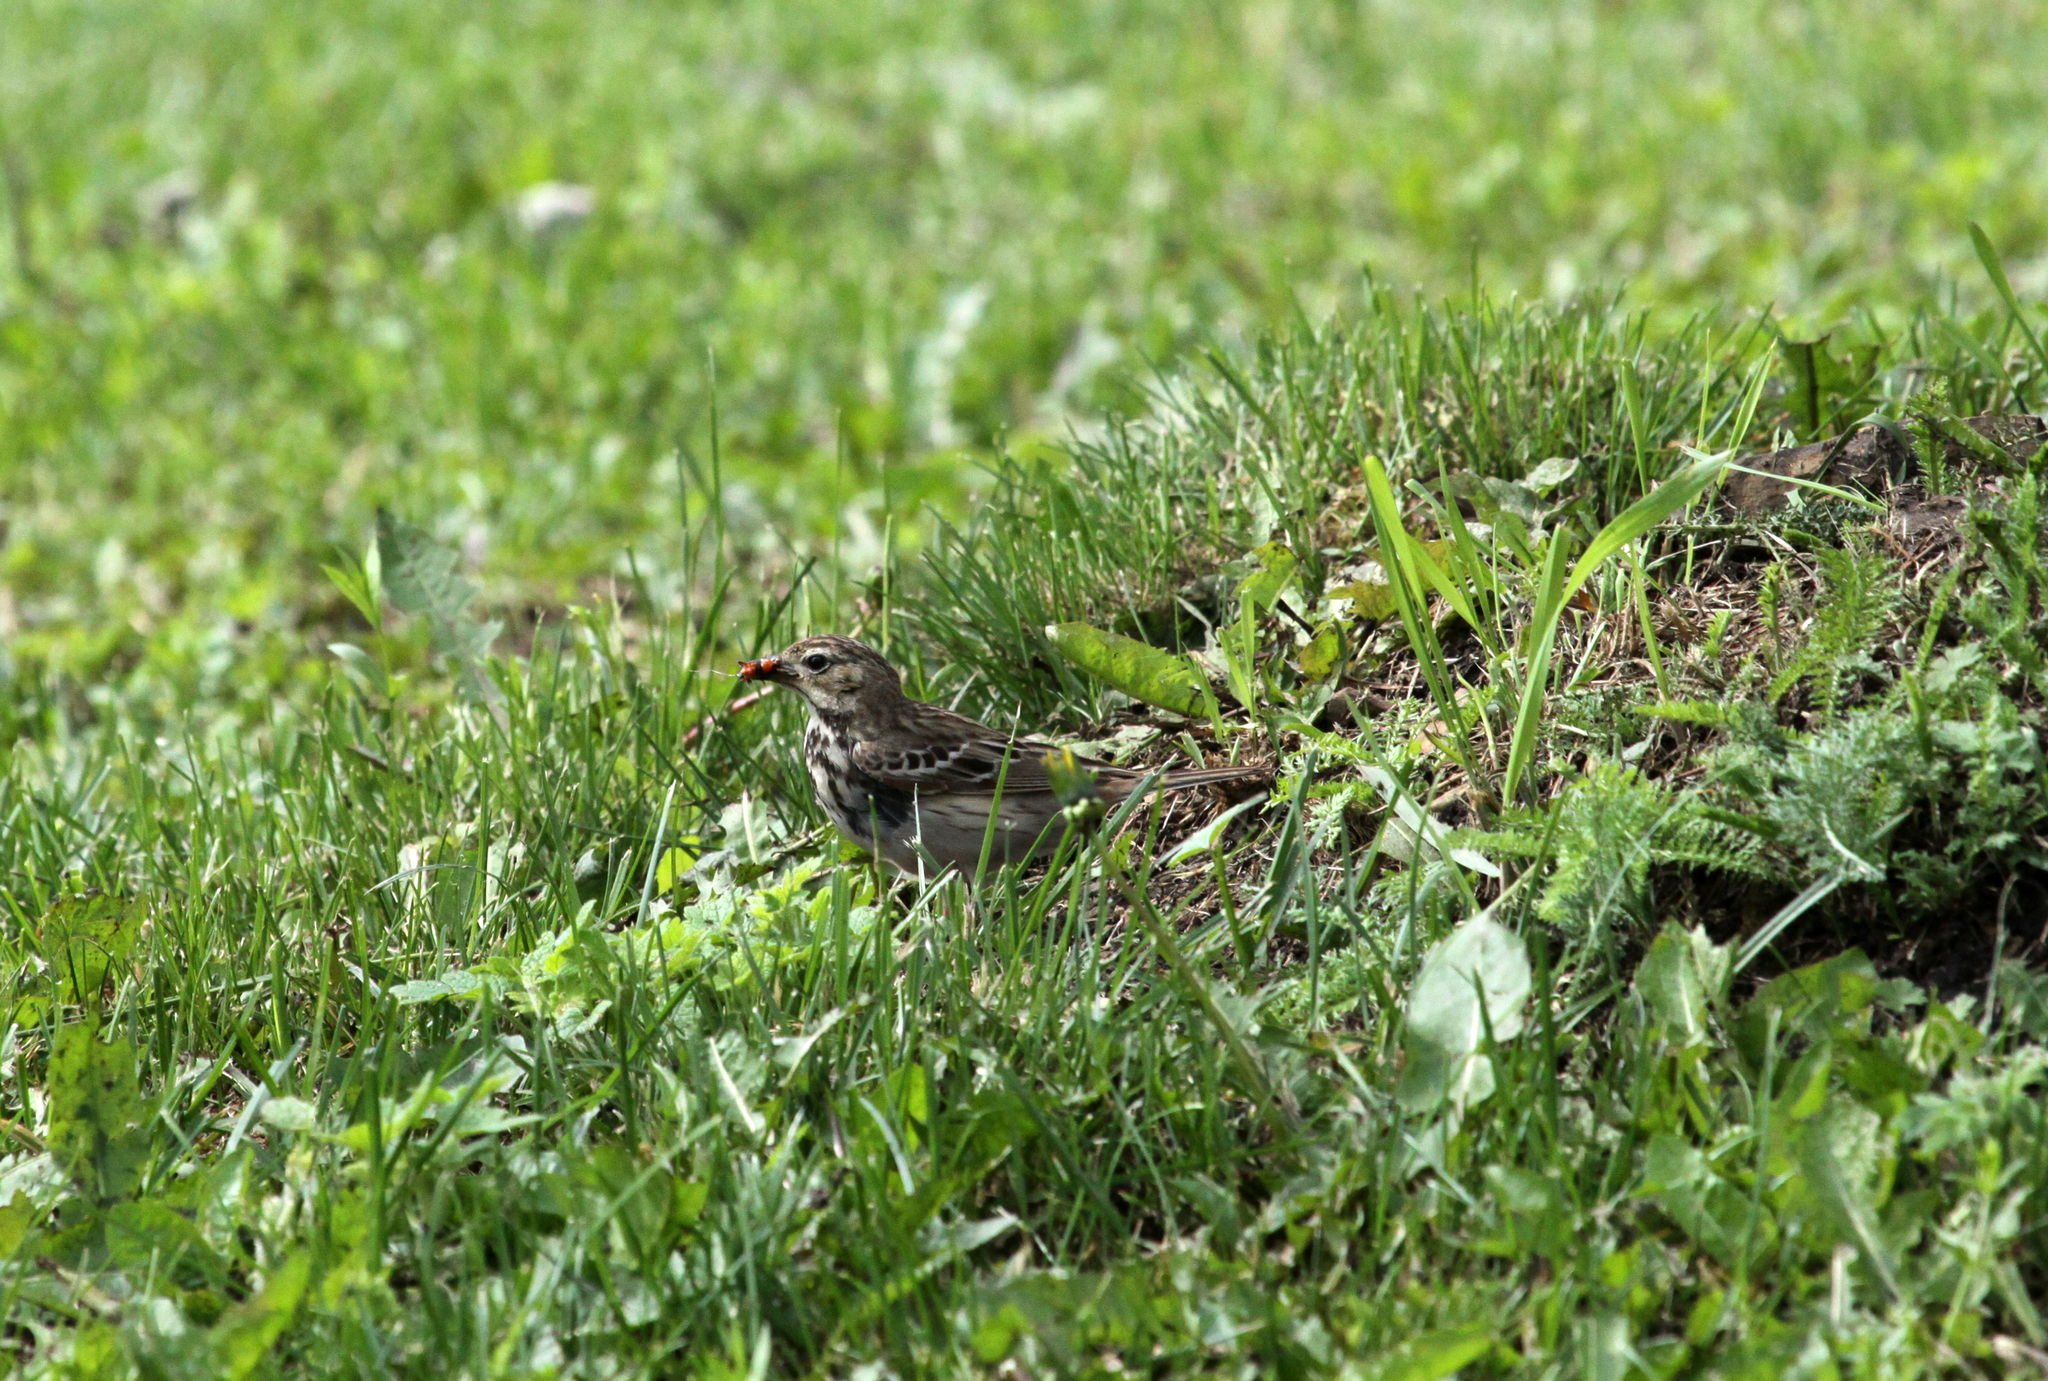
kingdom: Animalia
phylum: Chordata
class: Aves
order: Passeriformes
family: Motacillidae
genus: Anthus
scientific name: Anthus trivialis
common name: Tree pipit
